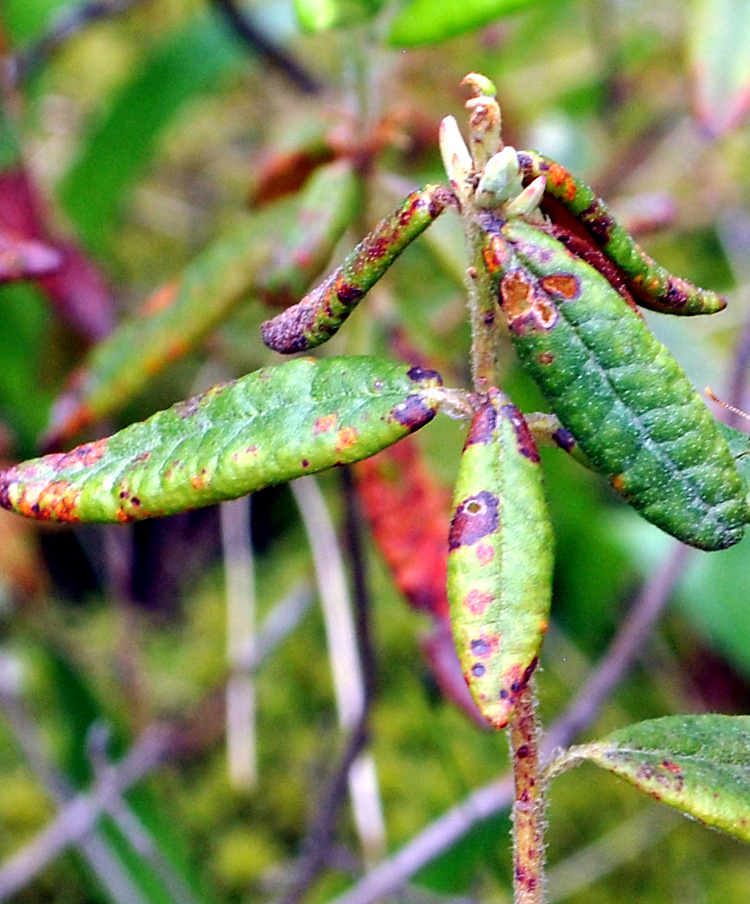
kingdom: Plantae
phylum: Tracheophyta
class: Magnoliopsida
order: Ericales
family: Ericaceae
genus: Rhododendron
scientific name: Rhododendron groenlandicum
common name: Bog labrador tea
